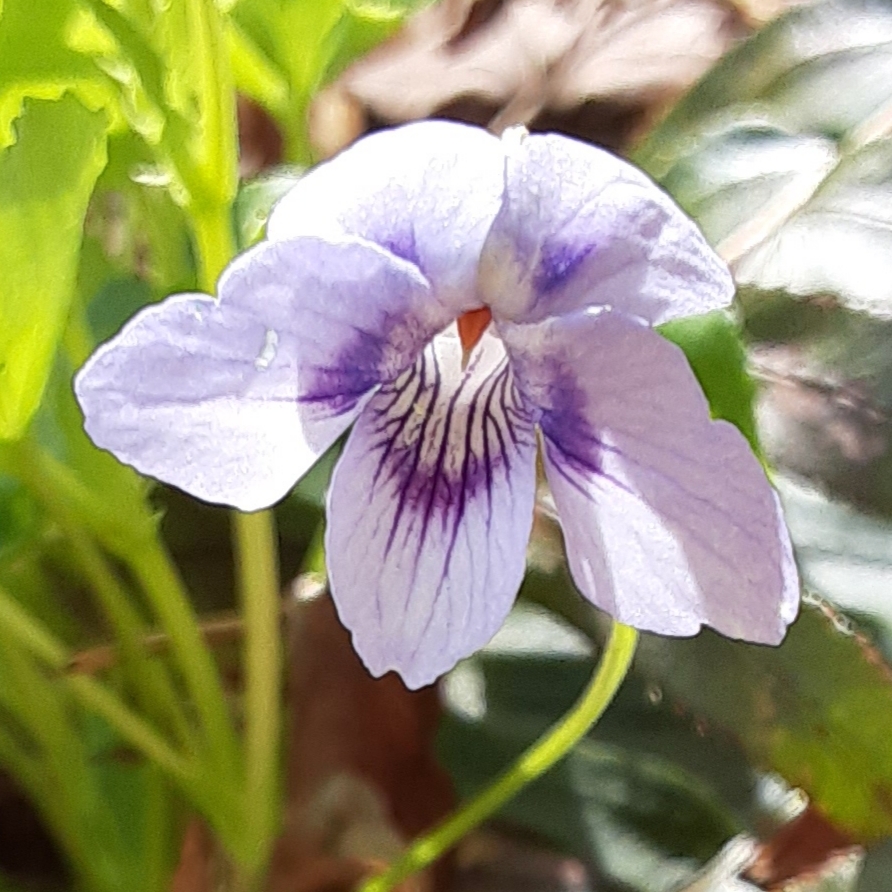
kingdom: Plantae
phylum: Tracheophyta
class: Magnoliopsida
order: Malpighiales
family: Violaceae
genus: Viola
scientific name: Viola rostrata
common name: Long-spur violet
